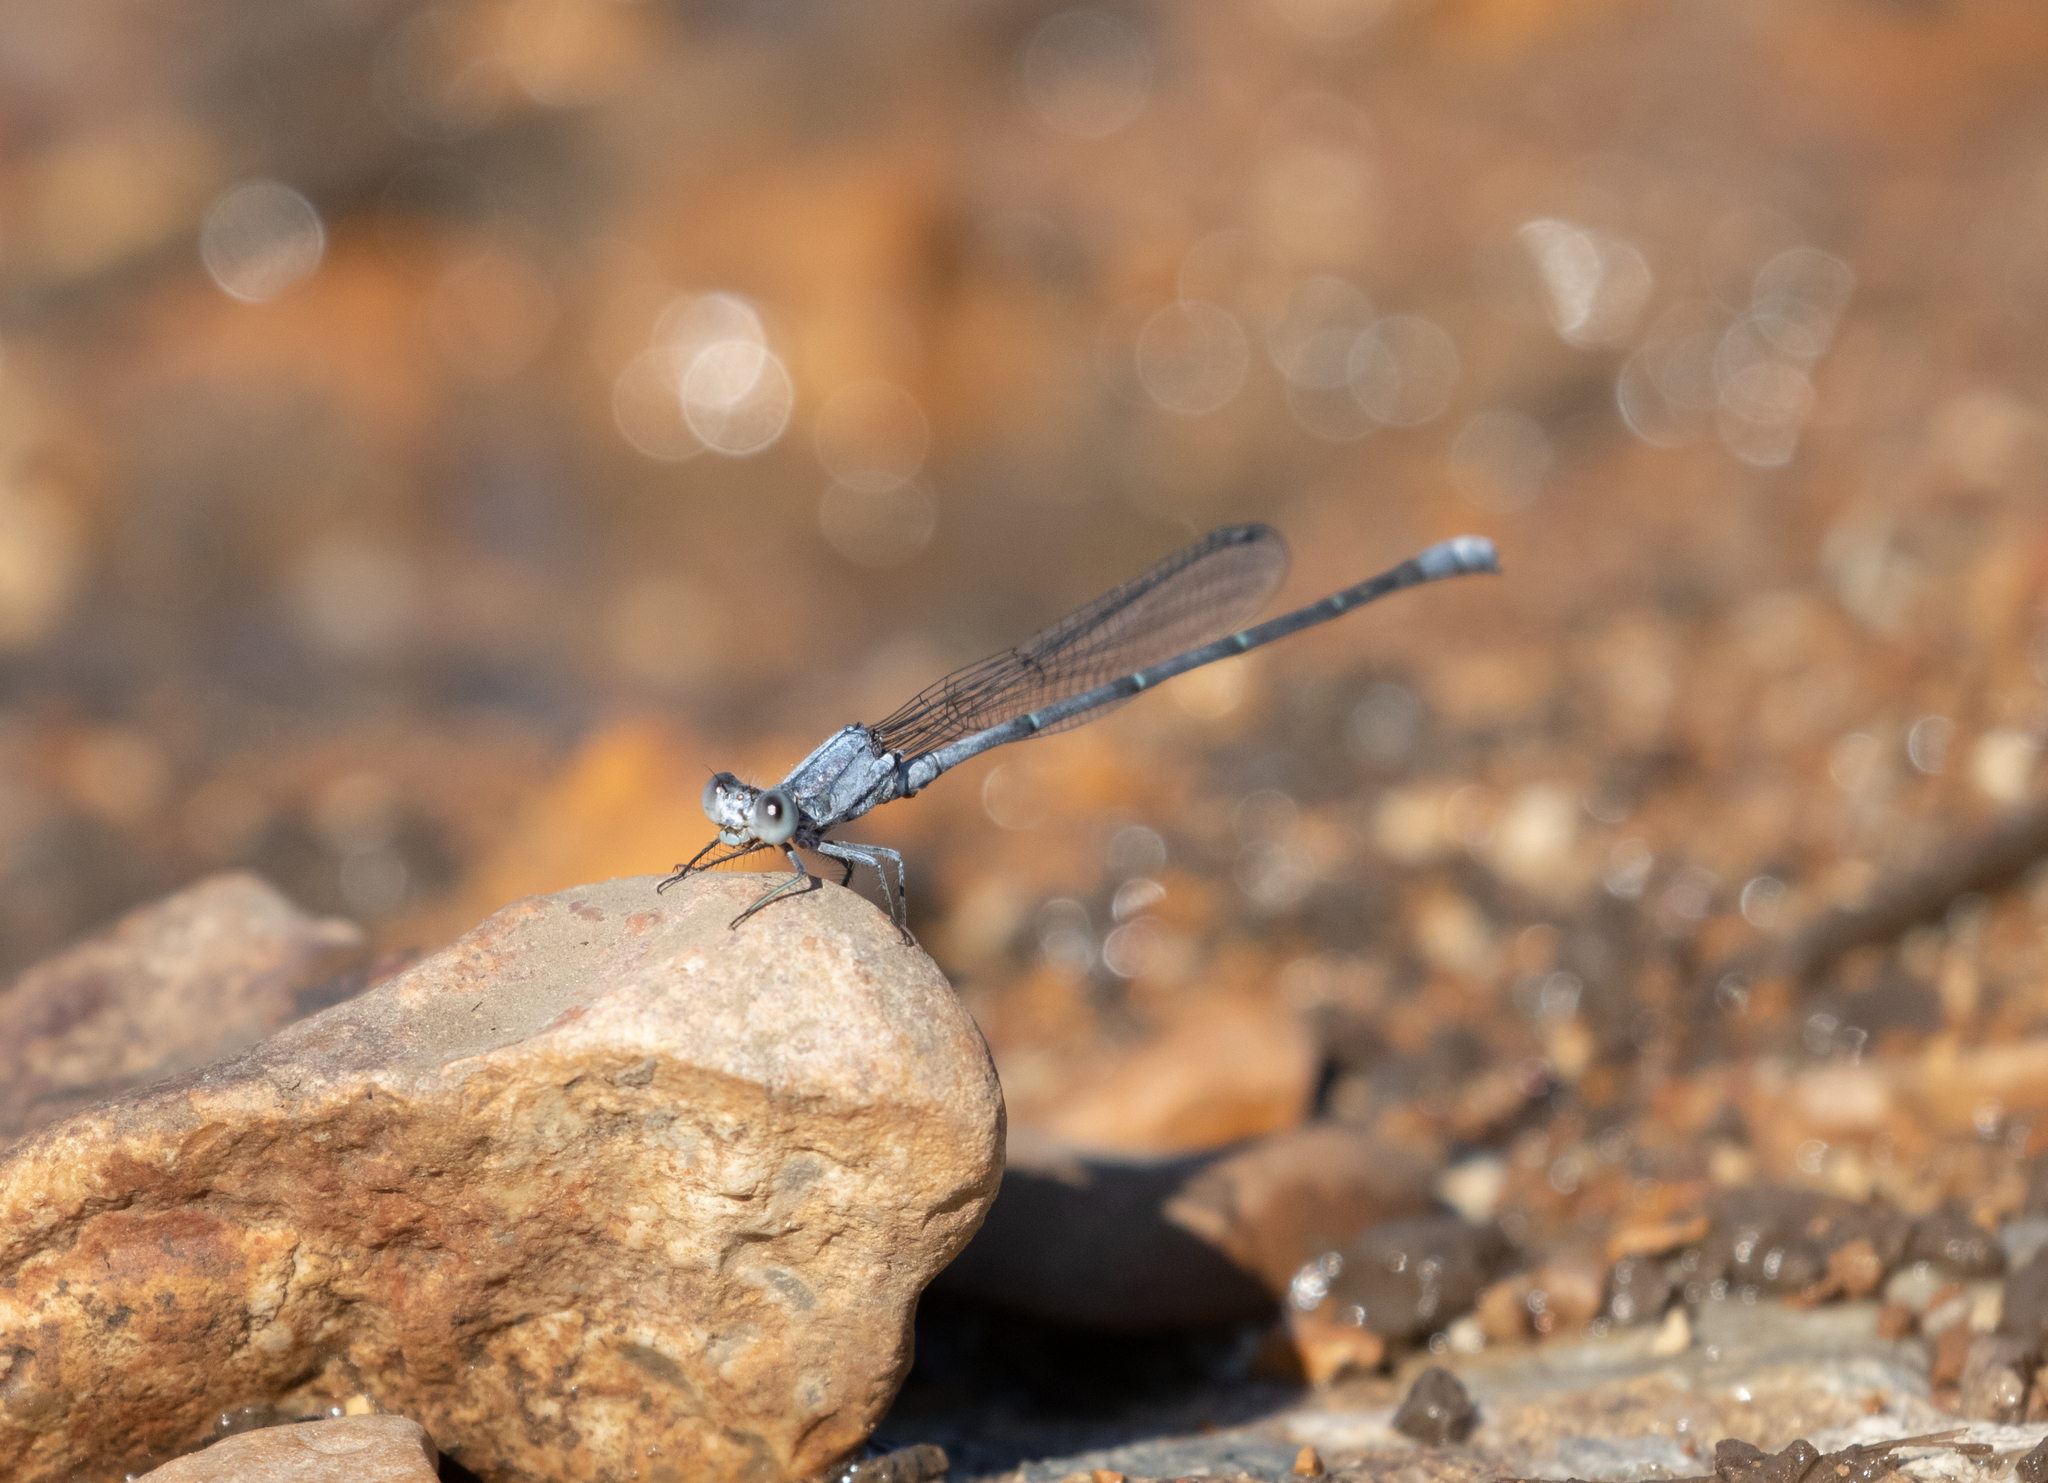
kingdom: Animalia
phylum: Arthropoda
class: Insecta
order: Odonata
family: Coenagrionidae
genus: Argia
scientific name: Argia moesta
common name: Powdered dancer
